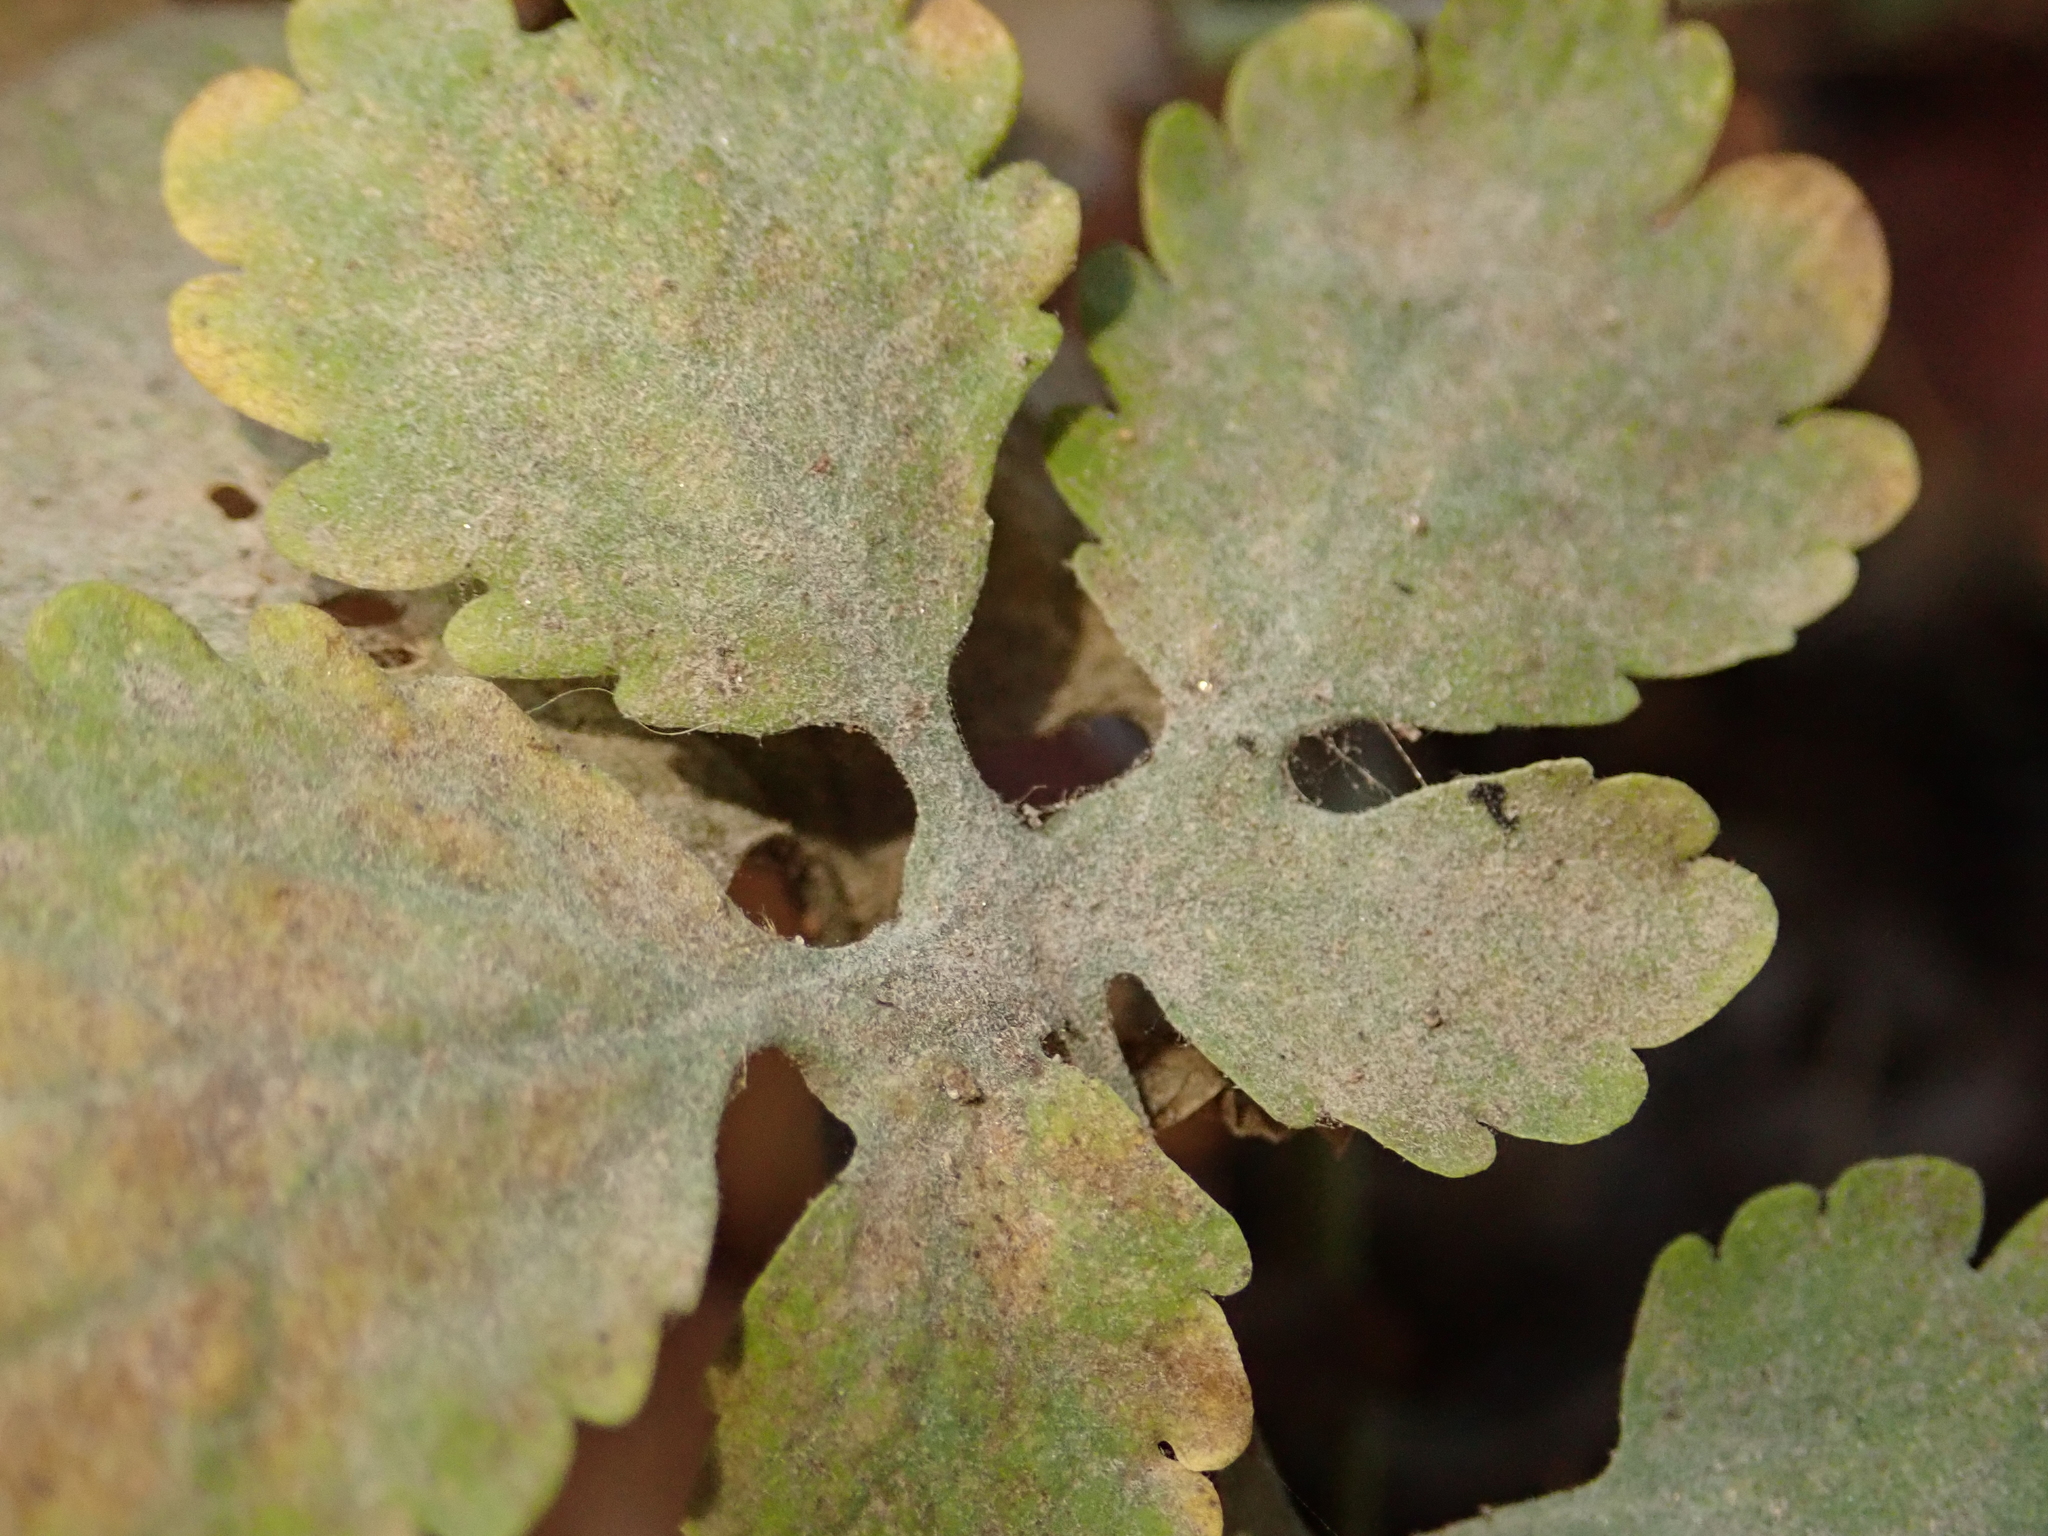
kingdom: Fungi
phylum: Ascomycota
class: Leotiomycetes
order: Helotiales
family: Erysiphaceae
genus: Erysiphe
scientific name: Erysiphe macleayae
